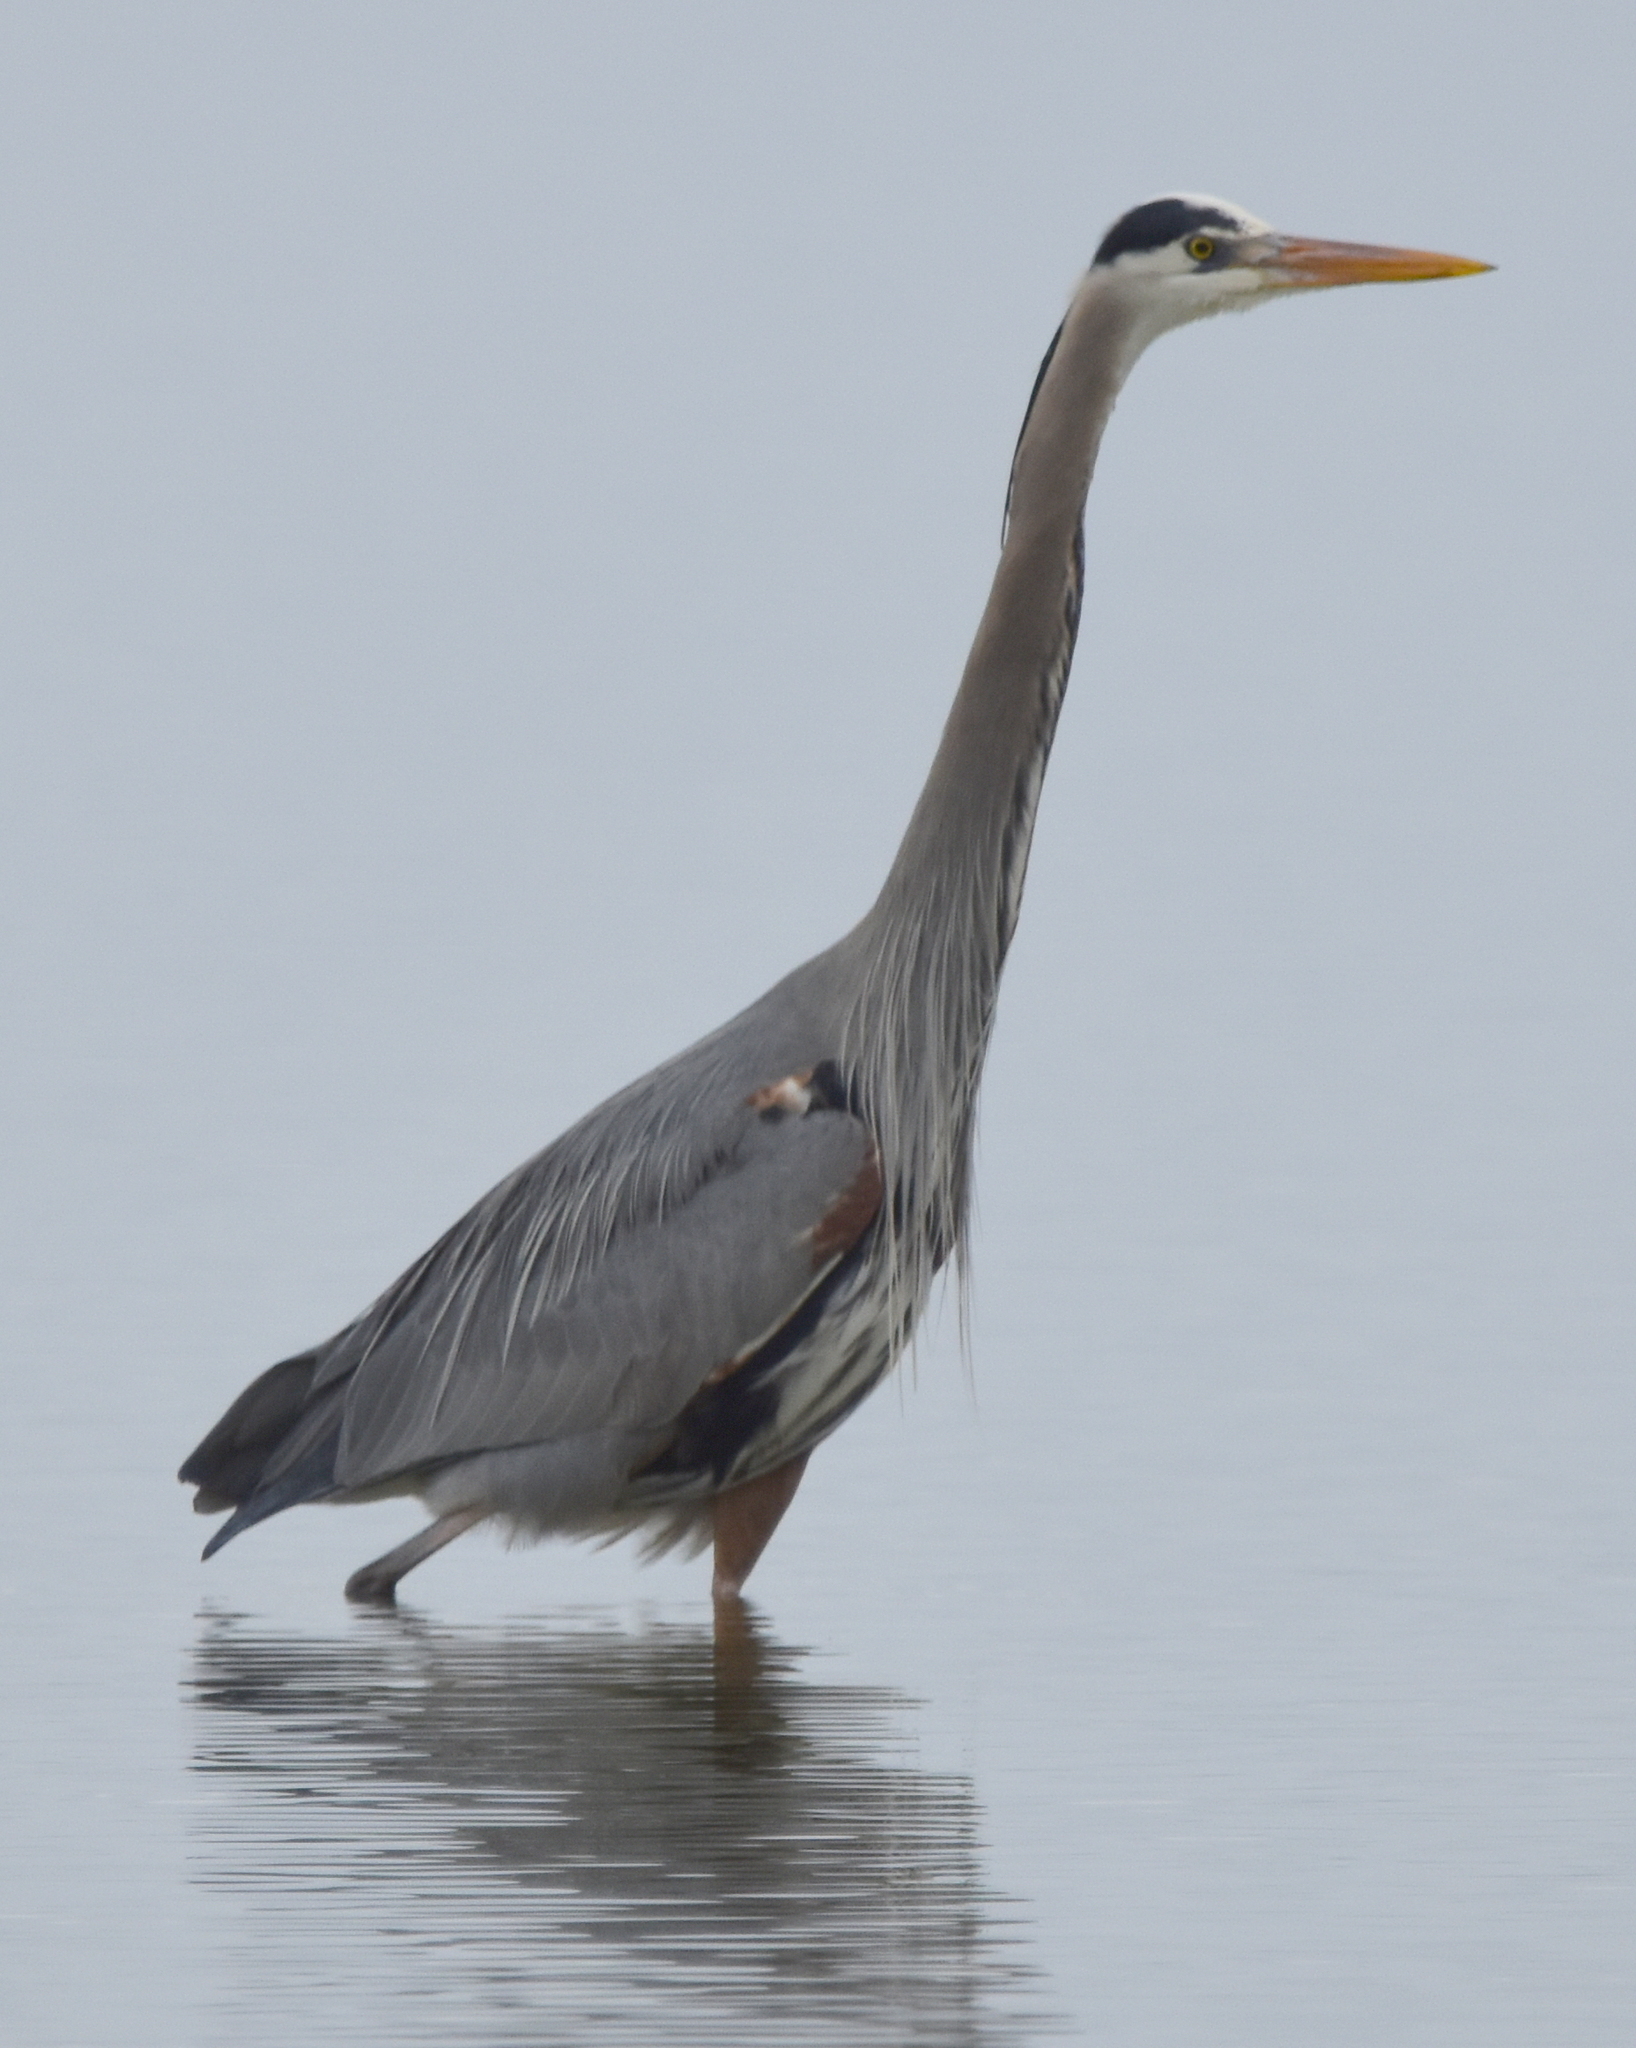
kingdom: Animalia
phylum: Chordata
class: Aves
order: Pelecaniformes
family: Ardeidae
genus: Ardea
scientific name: Ardea herodias
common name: Great blue heron
